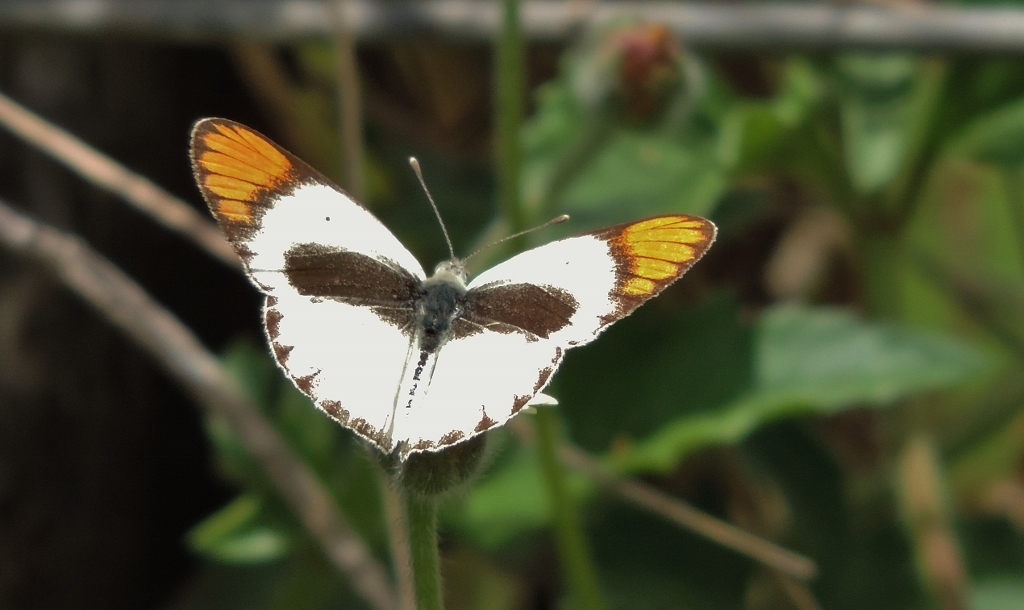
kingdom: Animalia
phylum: Arthropoda
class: Insecta
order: Lepidoptera
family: Pieridae
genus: Colotis
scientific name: Colotis pallene
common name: Bushveld orange tip
